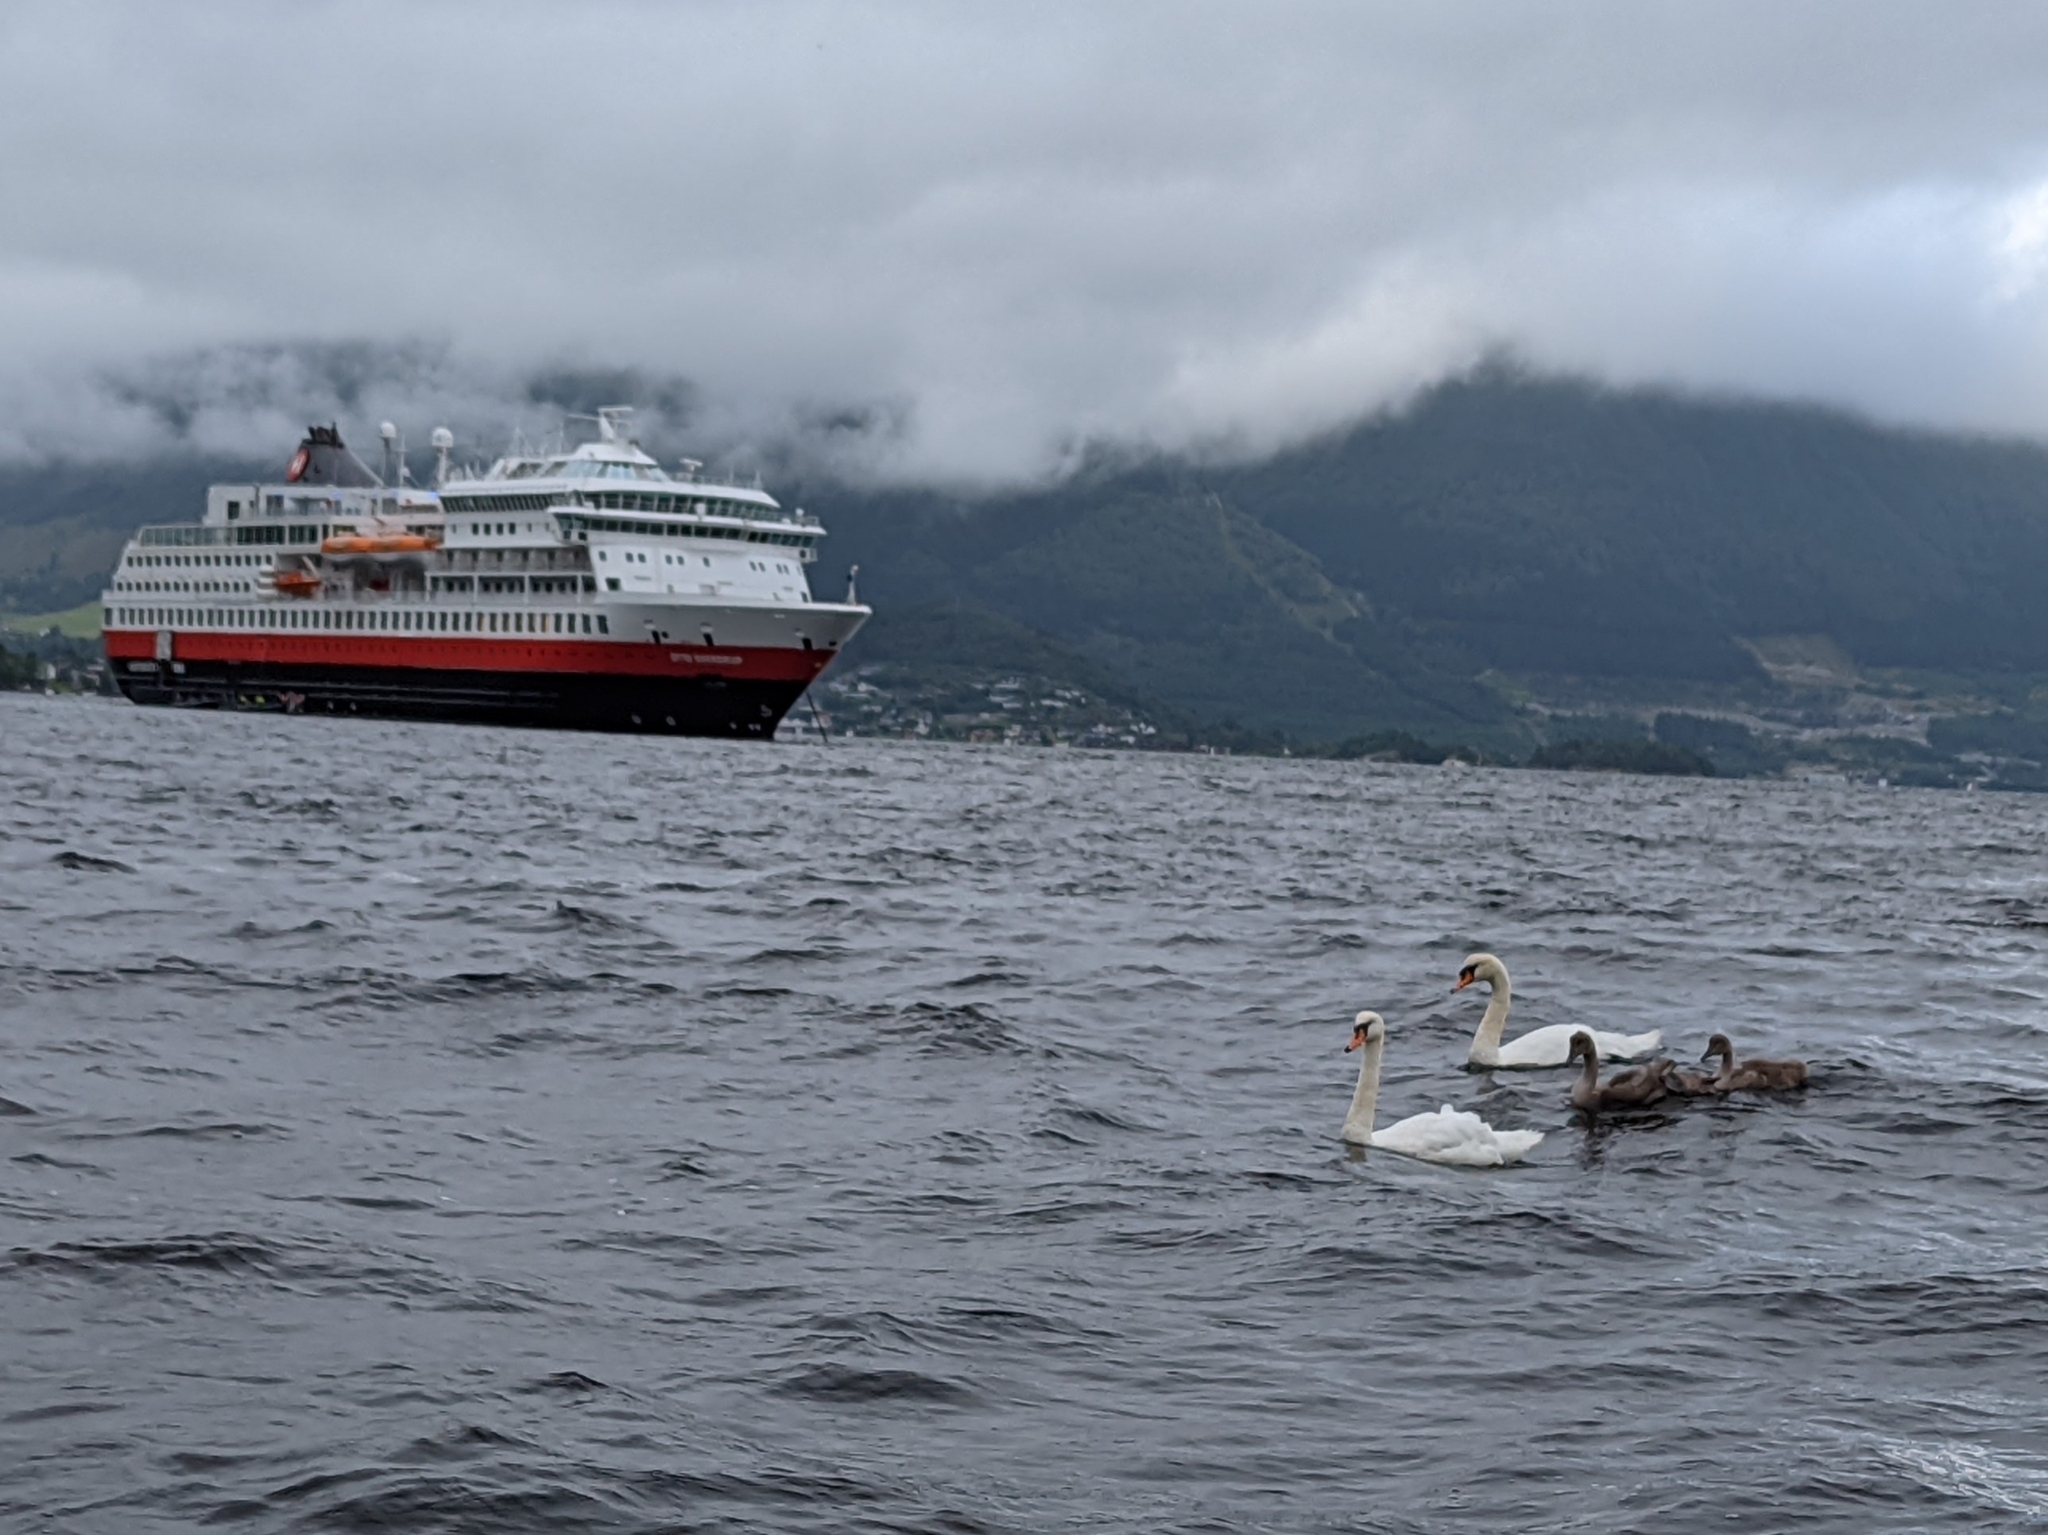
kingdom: Animalia
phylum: Chordata
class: Aves
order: Anseriformes
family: Anatidae
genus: Cygnus
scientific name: Cygnus olor
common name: Mute swan
